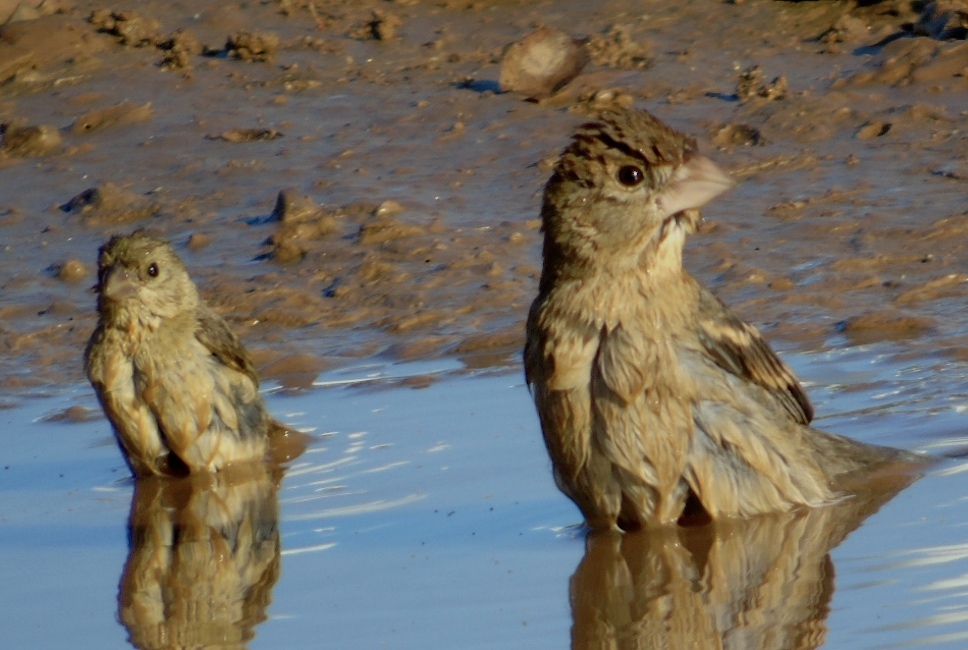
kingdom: Animalia
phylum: Chordata
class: Aves
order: Passeriformes
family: Cardinalidae
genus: Passerina
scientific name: Passerina caerulea
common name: Blue grosbeak
